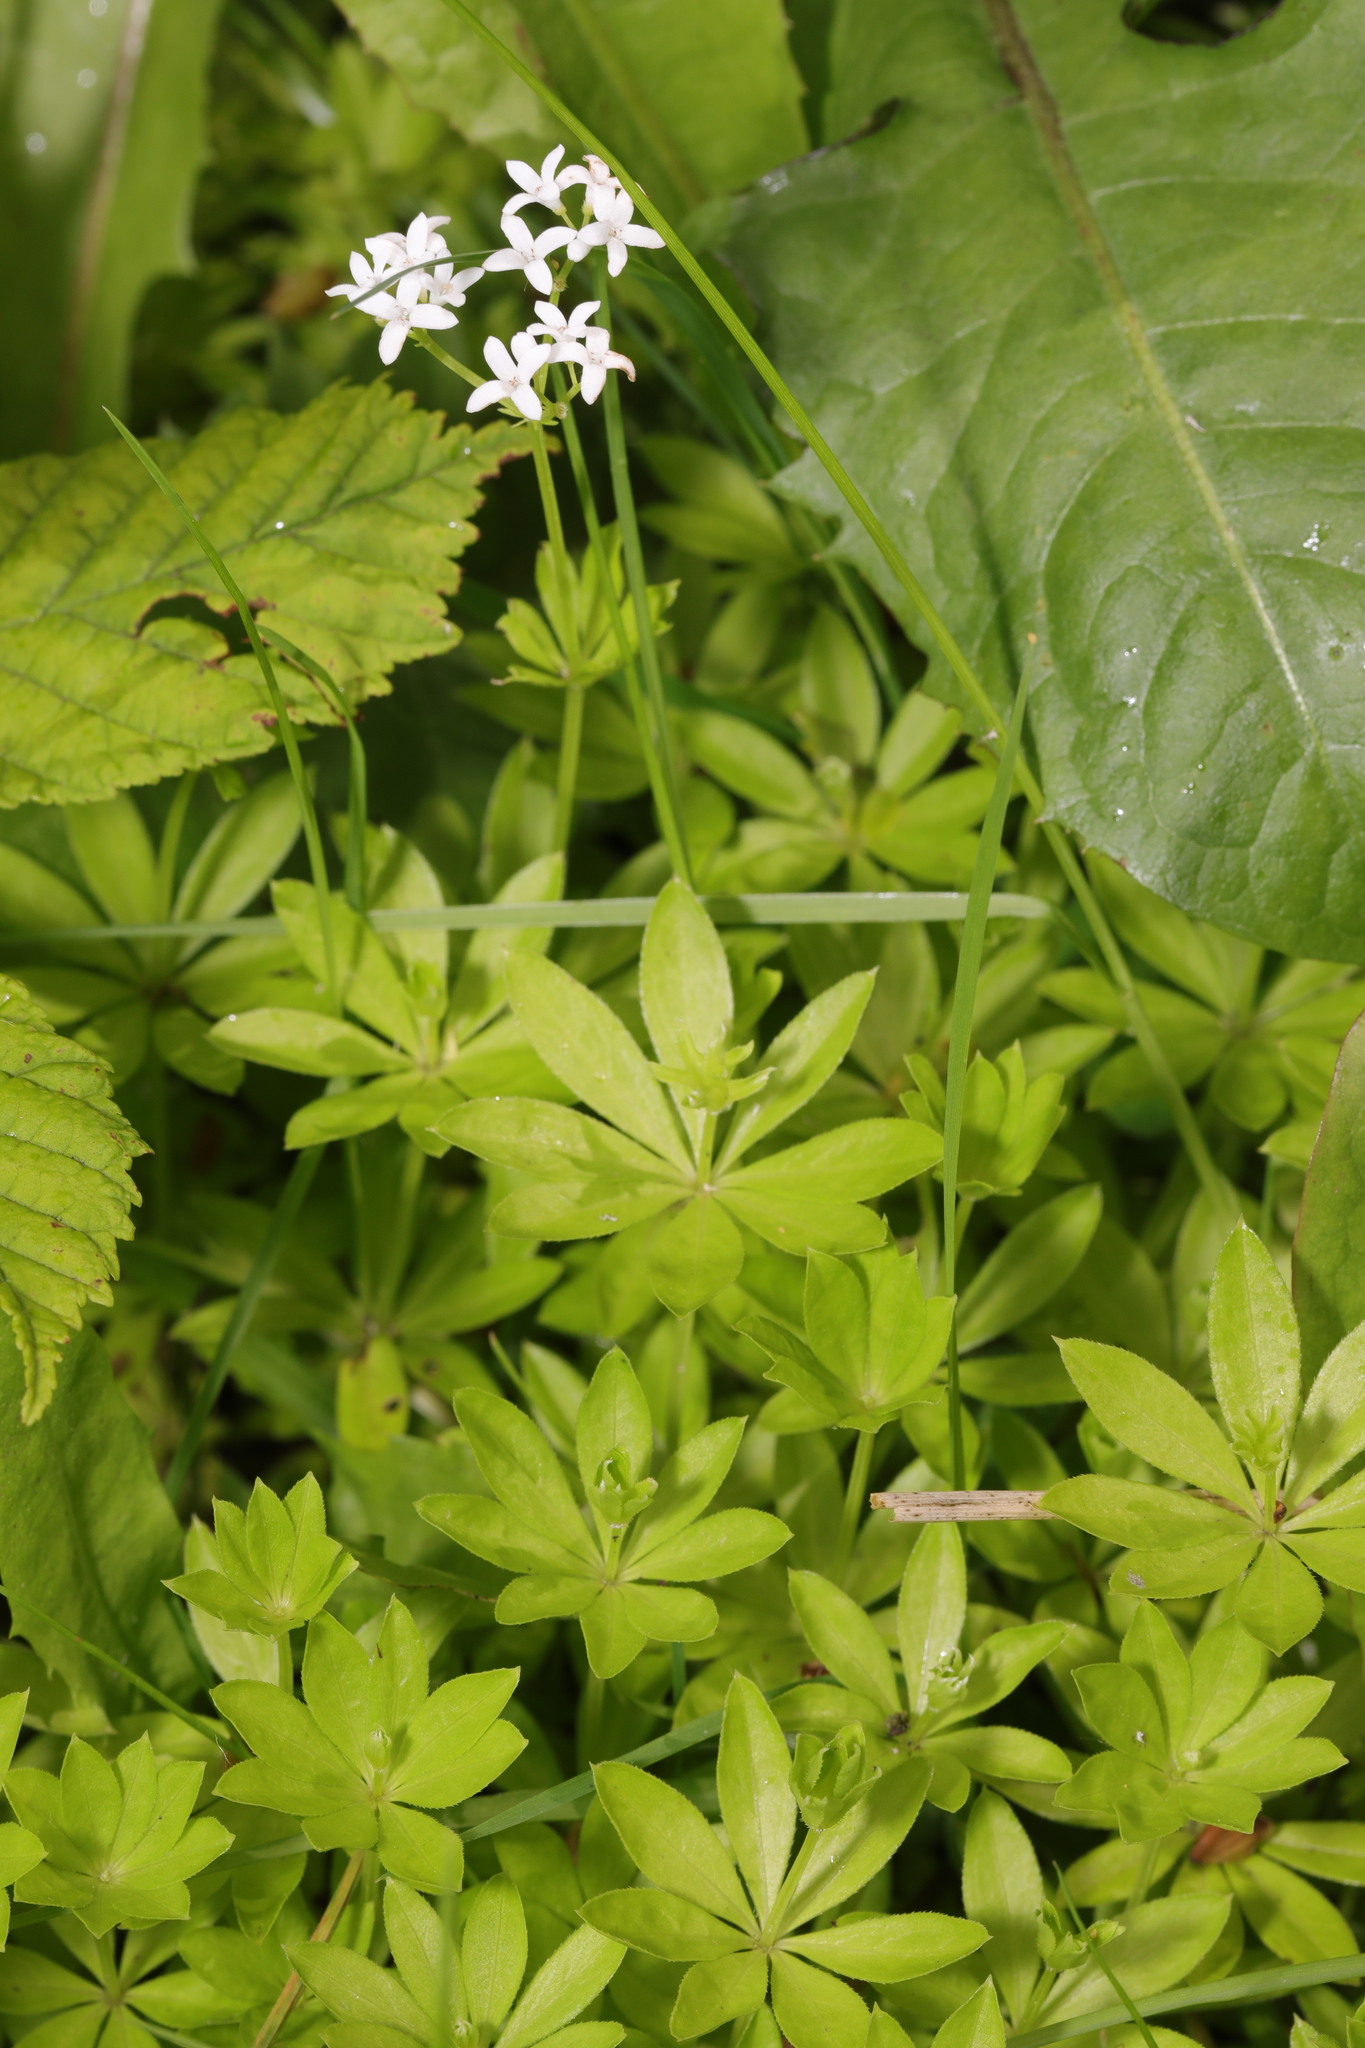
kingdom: Plantae
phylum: Tracheophyta
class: Magnoliopsida
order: Gentianales
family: Rubiaceae
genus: Galium
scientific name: Galium odoratum
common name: Sweet woodruff
